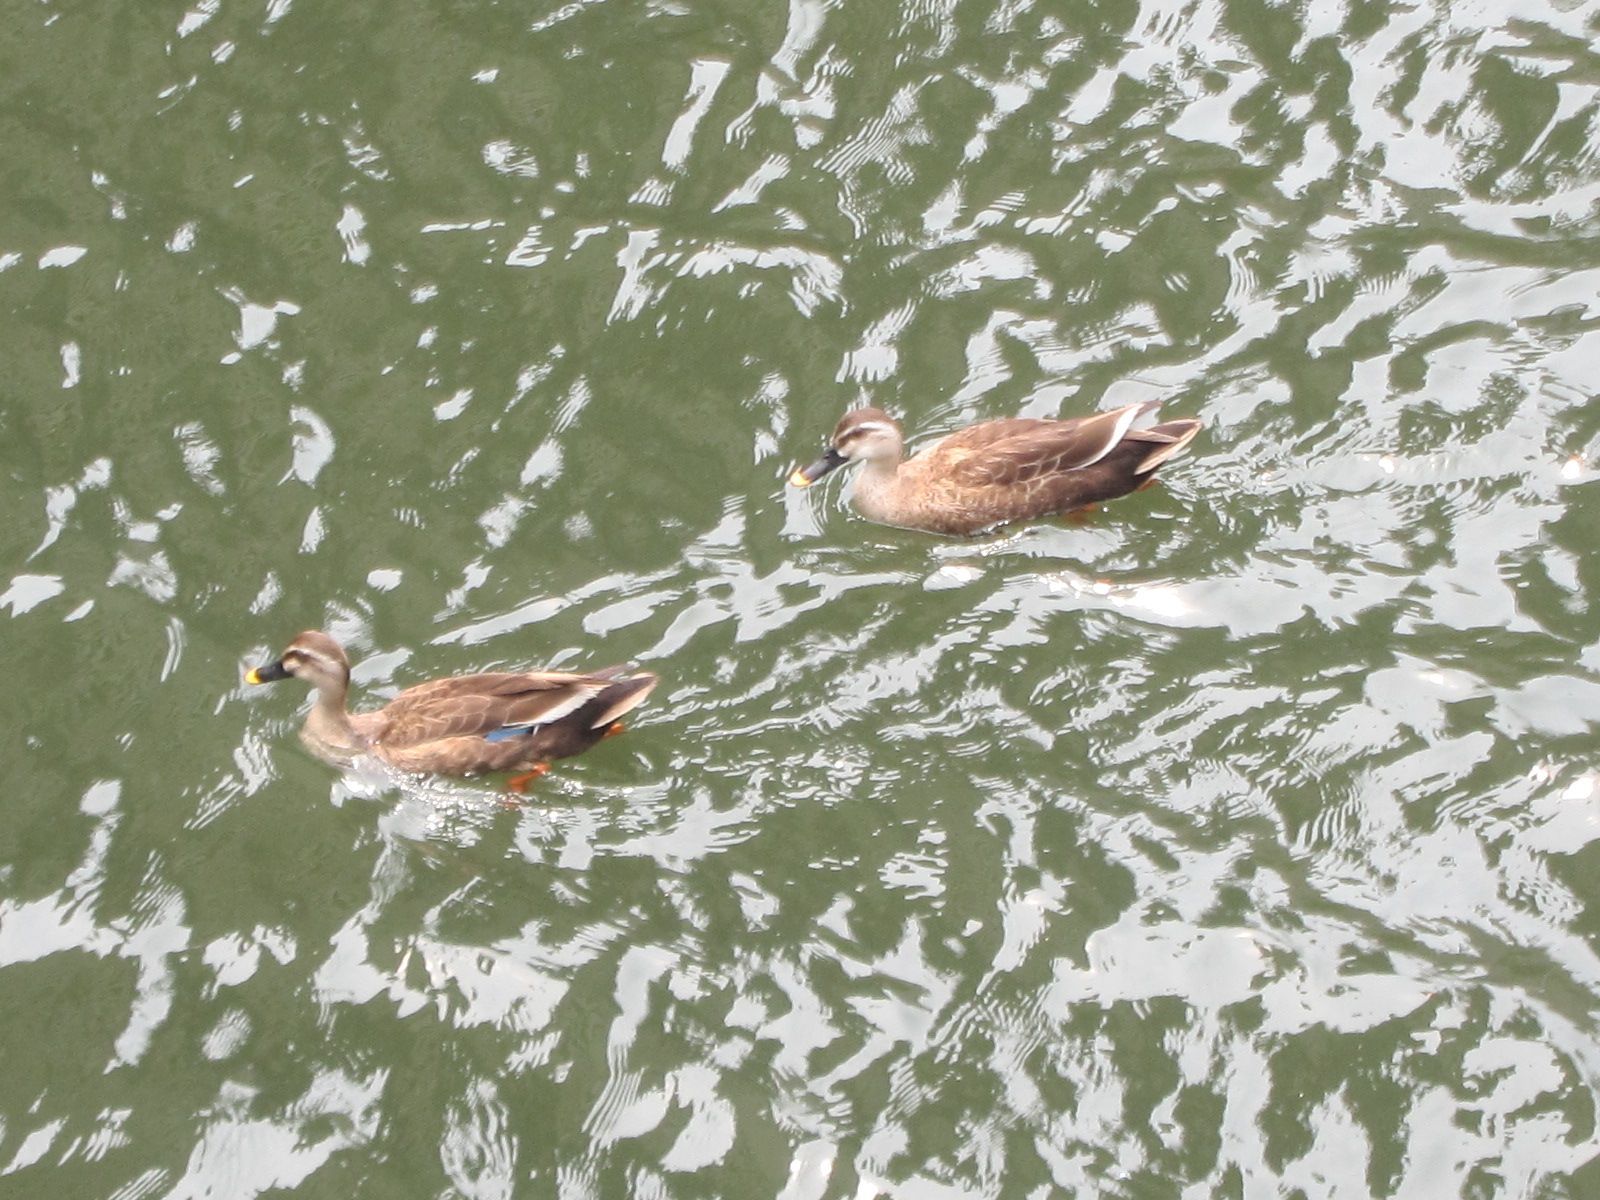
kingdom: Animalia
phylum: Chordata
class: Aves
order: Anseriformes
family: Anatidae
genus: Anas
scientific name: Anas zonorhyncha
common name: Eastern spot-billed duck
